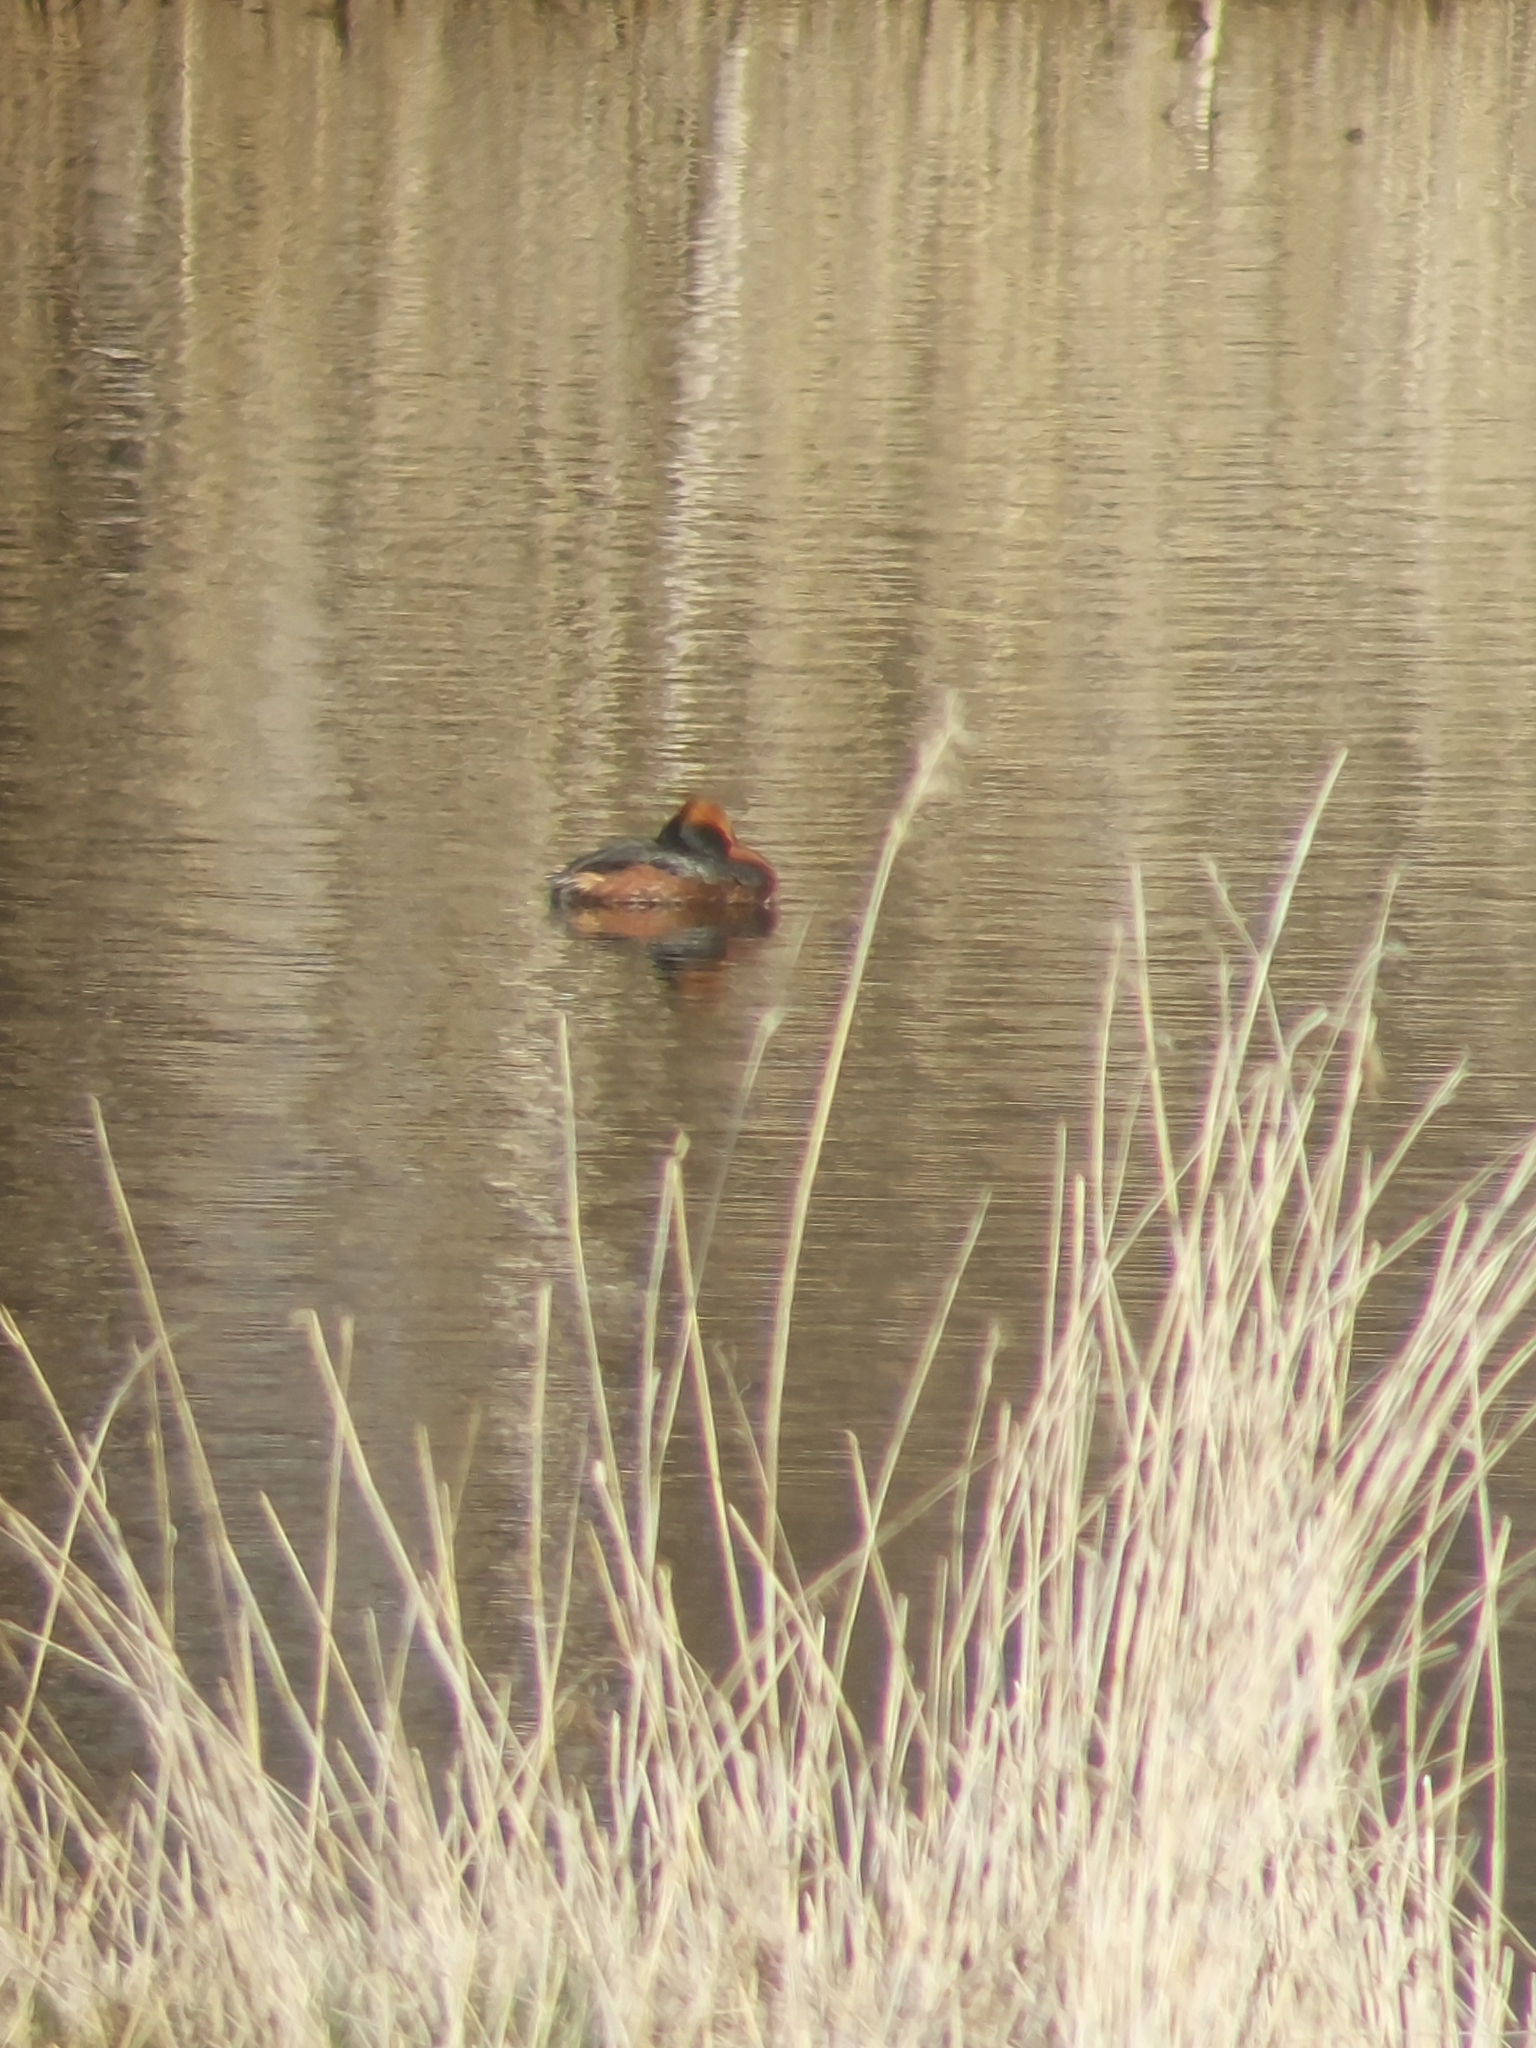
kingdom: Animalia
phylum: Chordata
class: Aves
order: Podicipediformes
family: Podicipedidae
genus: Podiceps
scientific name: Podiceps auritus
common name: Horned grebe
